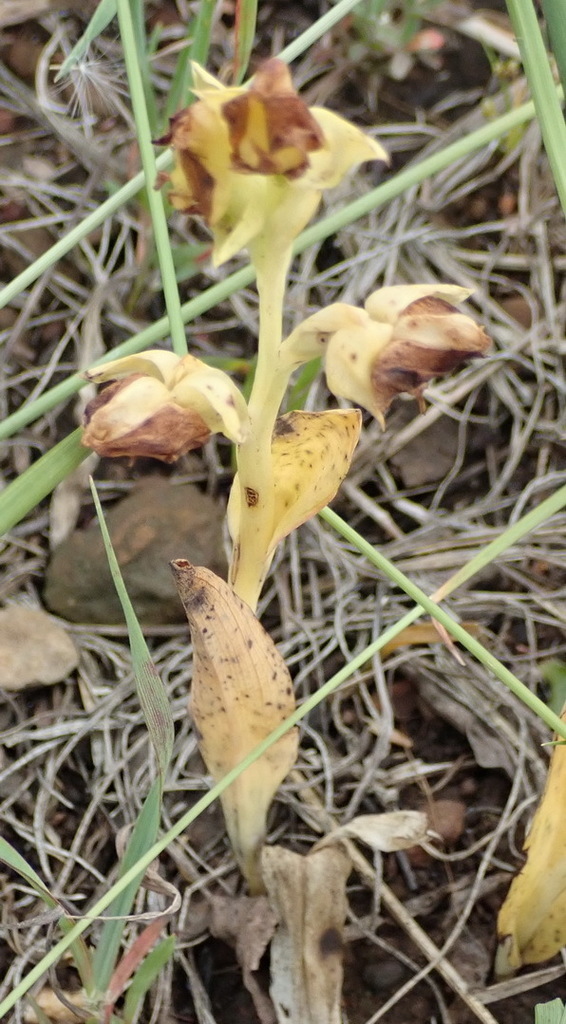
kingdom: Plantae
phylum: Tracheophyta
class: Liliopsida
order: Asparagales
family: Orchidaceae
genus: Pterygodium
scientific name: Pterygodium catholicum
